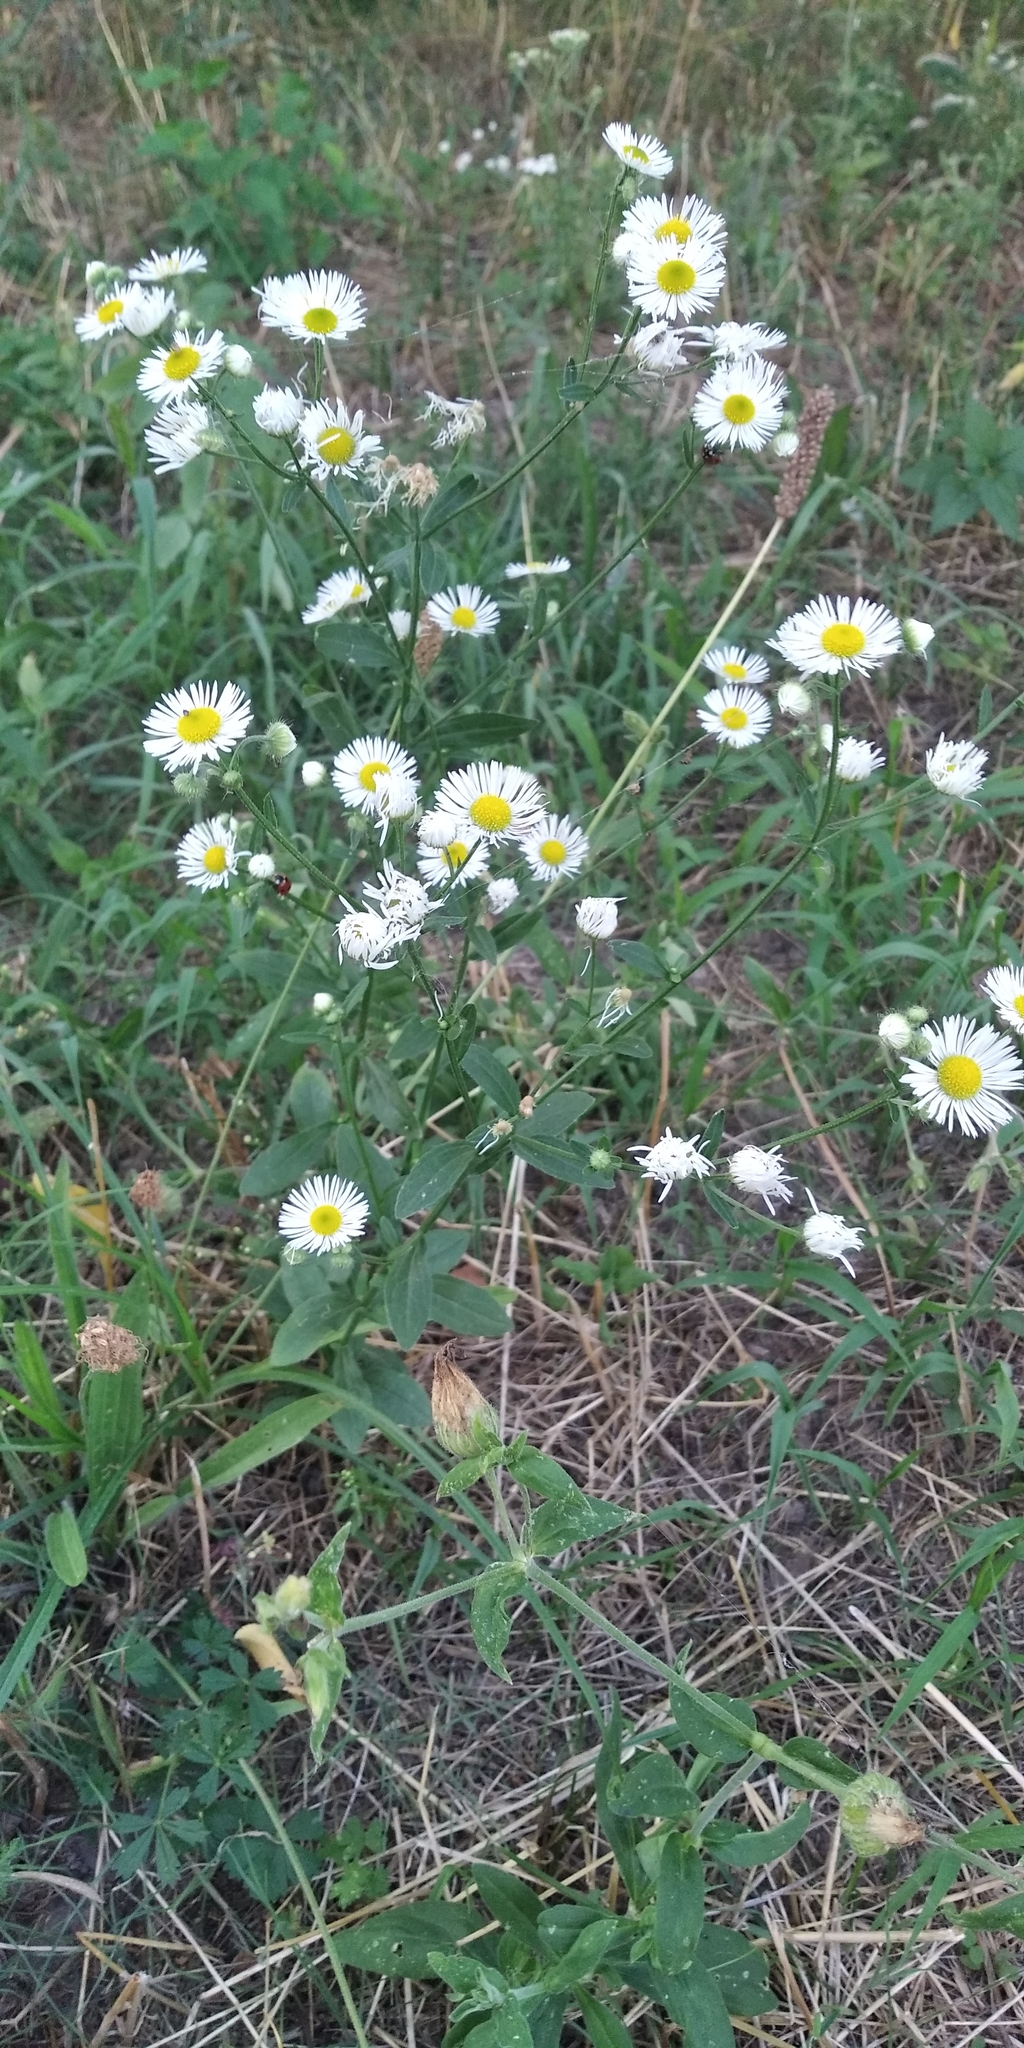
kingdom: Plantae
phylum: Tracheophyta
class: Magnoliopsida
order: Asterales
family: Asteraceae
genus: Erigeron
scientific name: Erigeron annuus
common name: Tall fleabane
